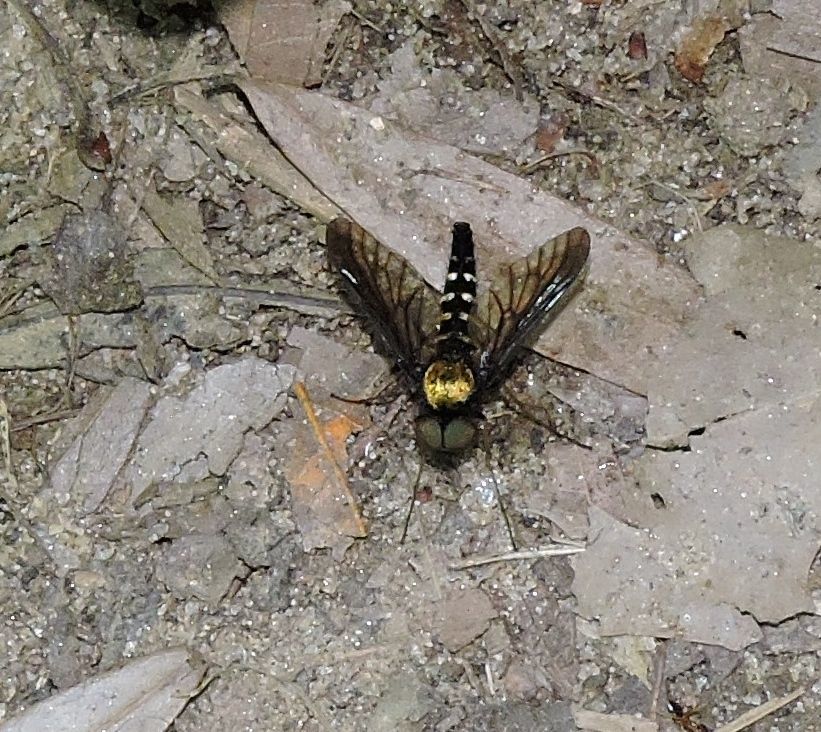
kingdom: Animalia
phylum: Arthropoda
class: Insecta
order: Diptera
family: Rhagionidae
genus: Chrysopilus
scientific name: Chrysopilus thoracicus
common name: Golden-backed snipe fly
